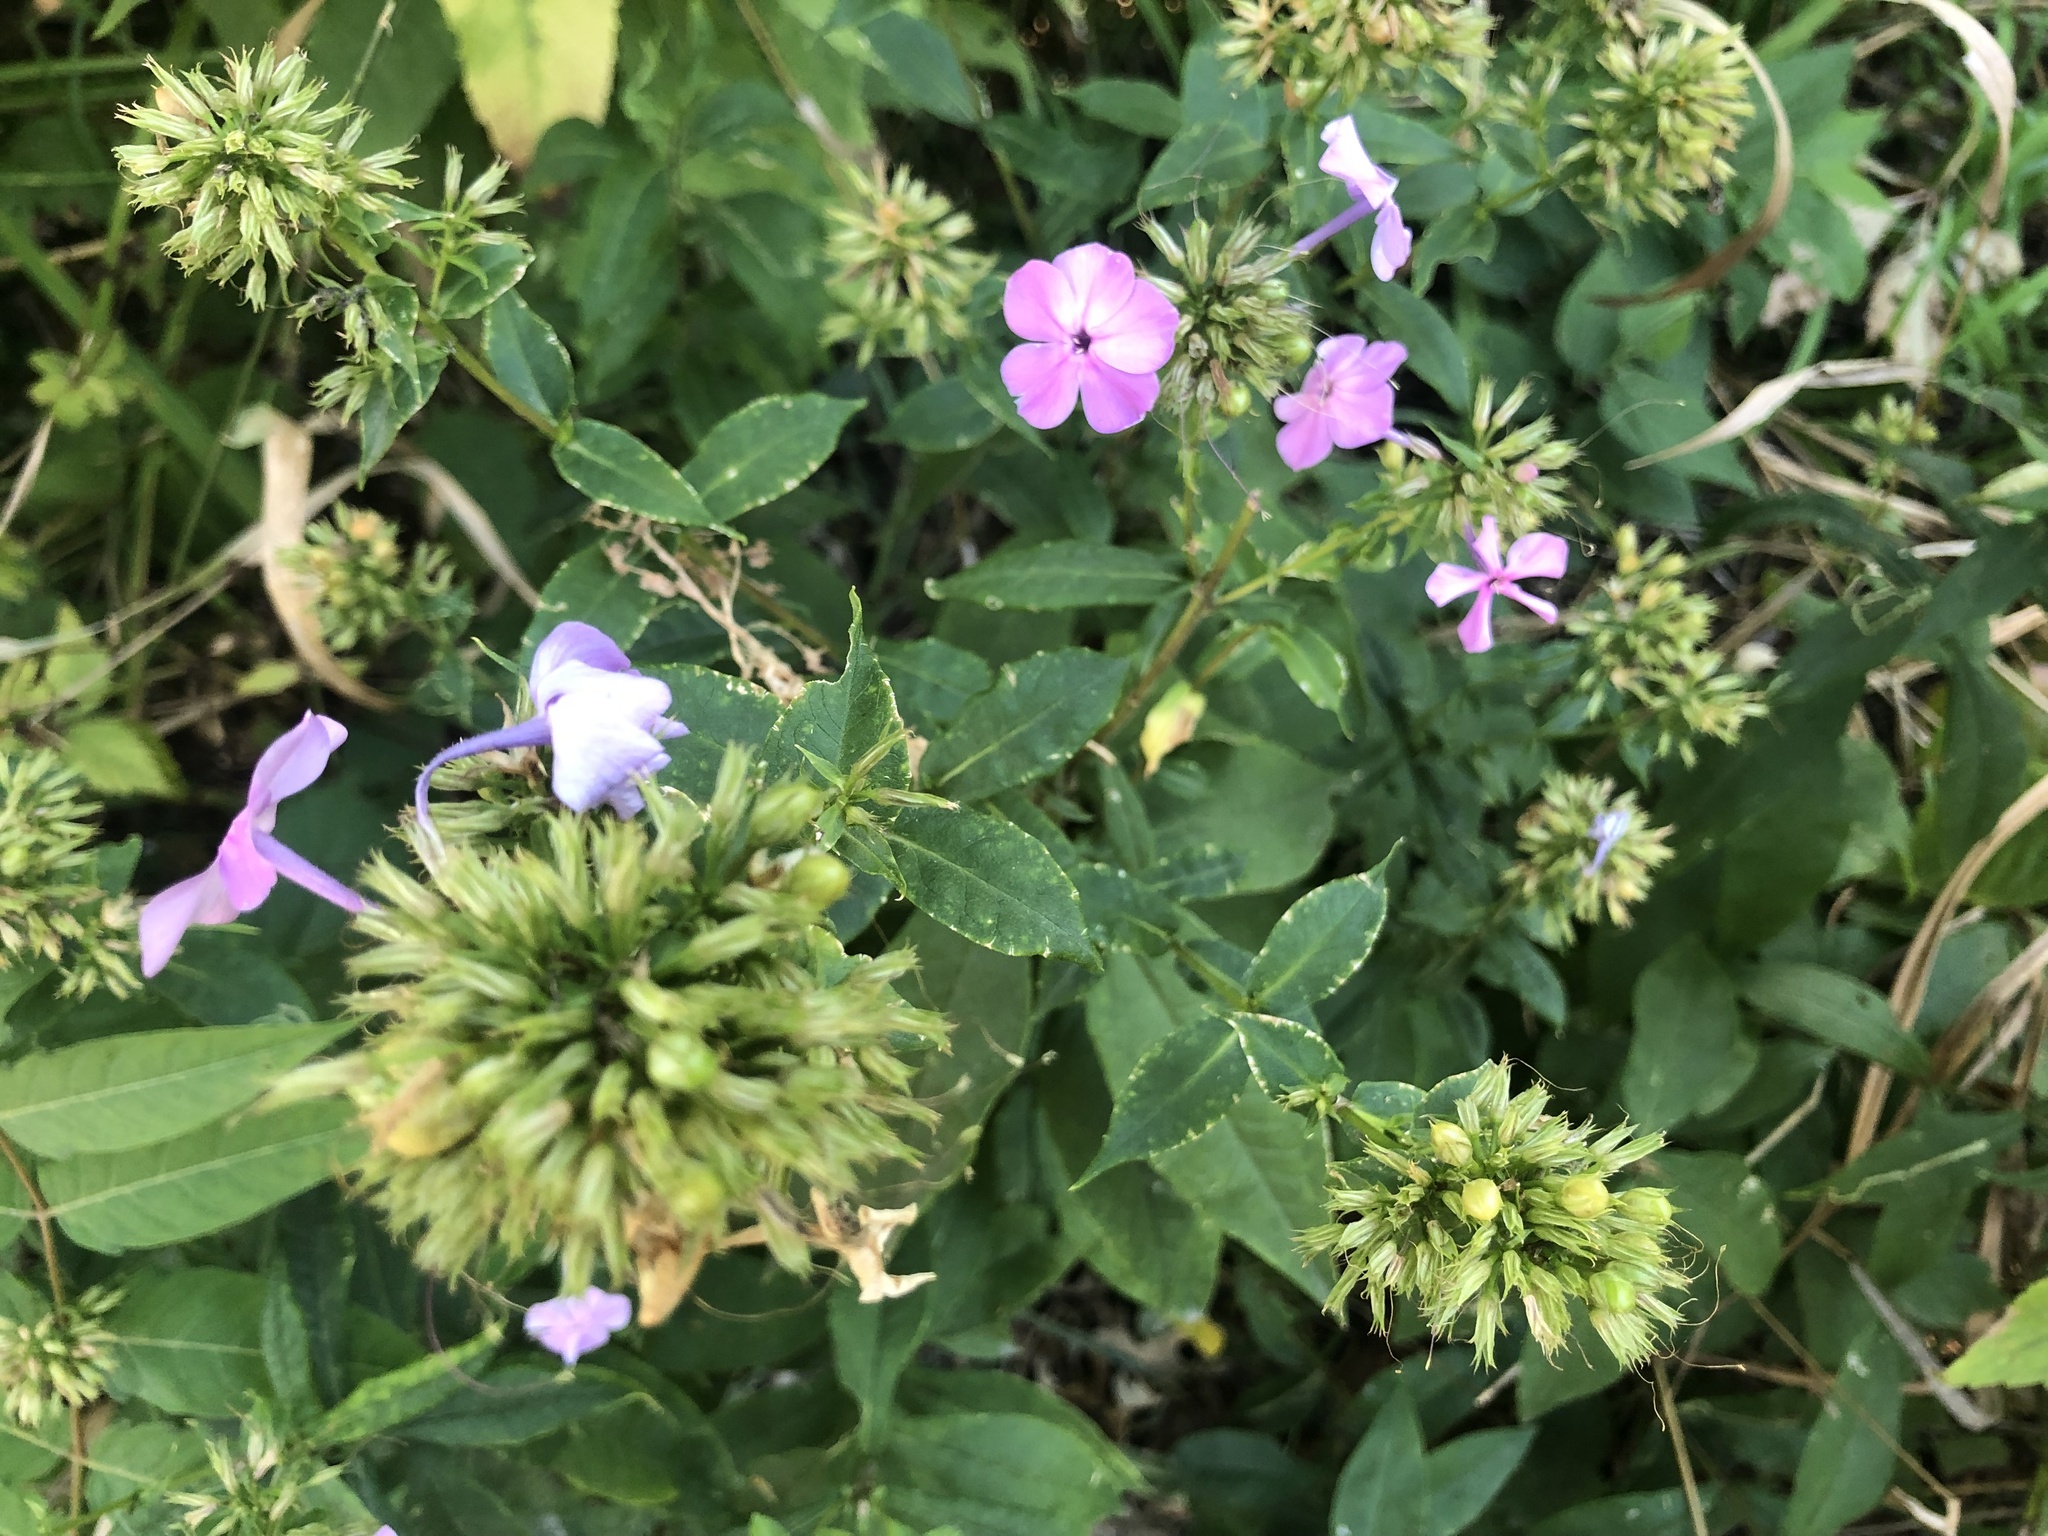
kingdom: Plantae
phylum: Tracheophyta
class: Magnoliopsida
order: Ericales
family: Polemoniaceae
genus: Phlox
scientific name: Phlox paniculata
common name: Fall phlox
